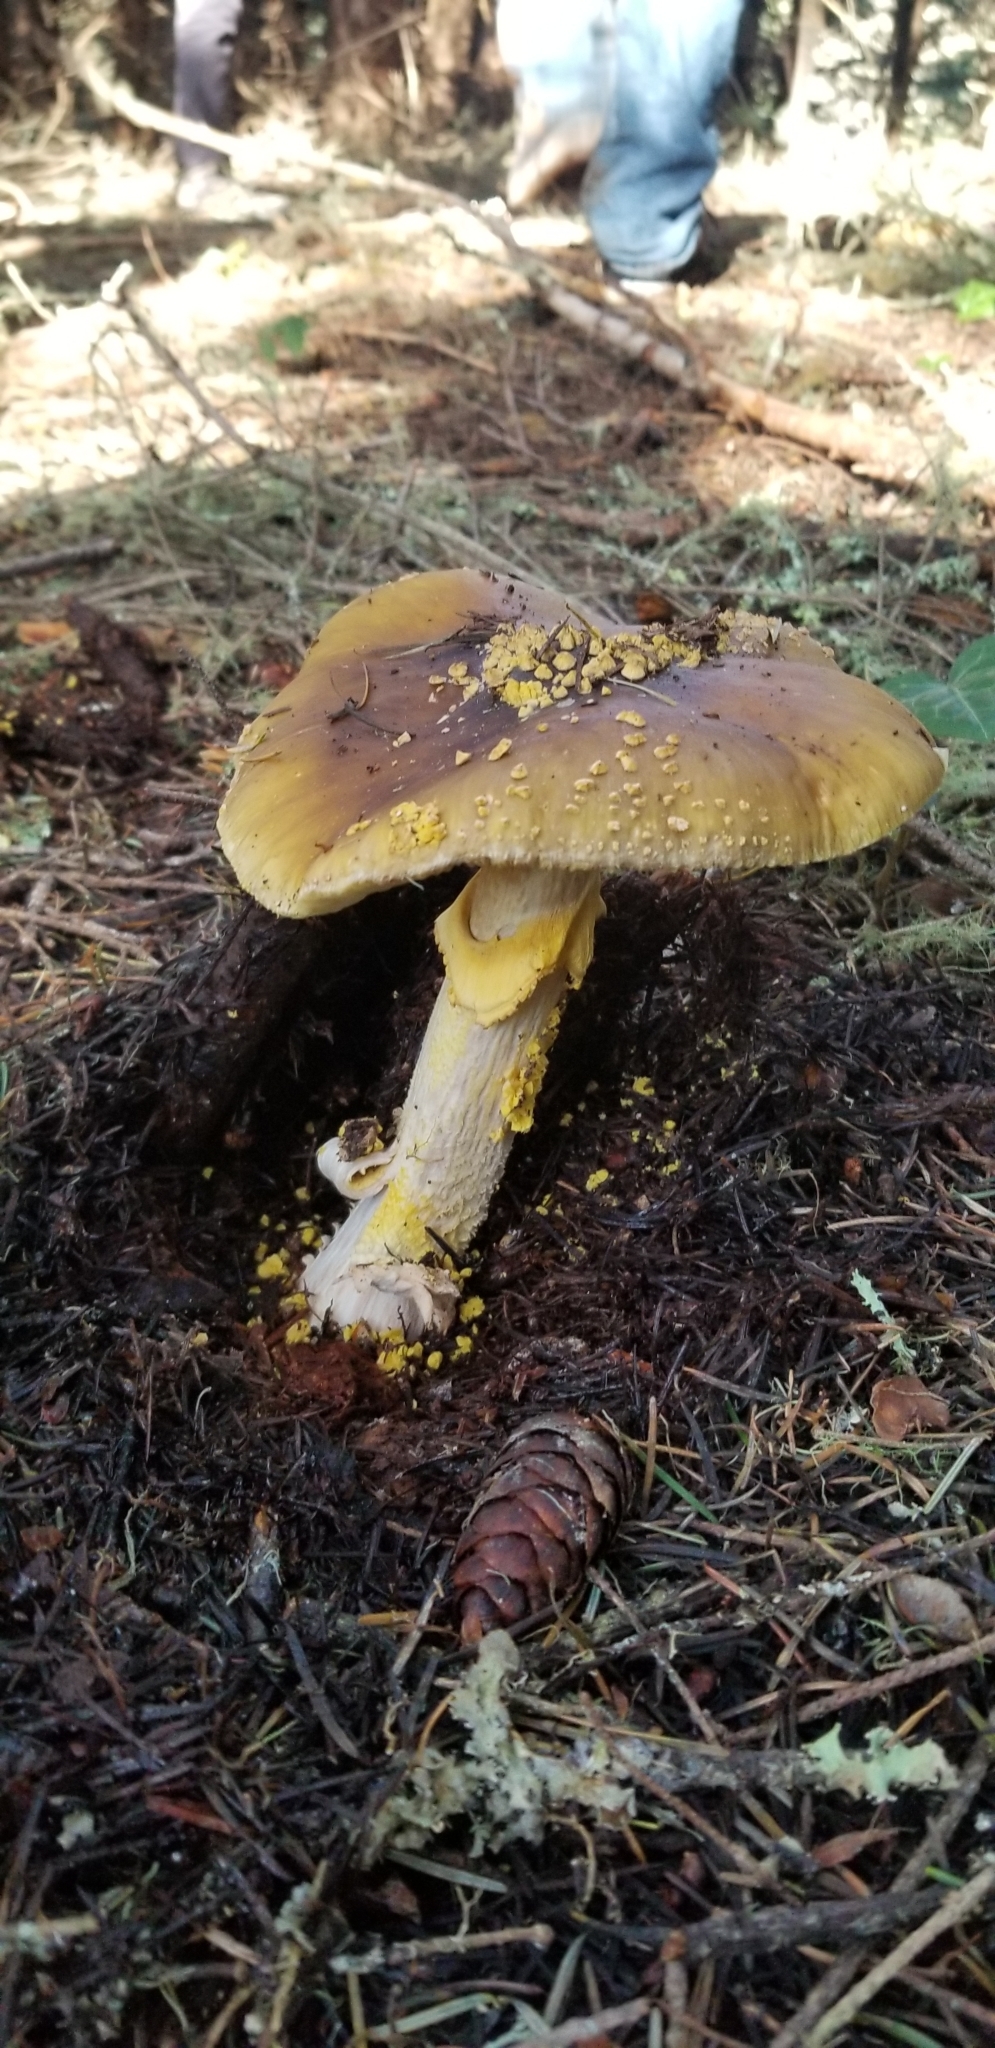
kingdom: Fungi
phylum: Basidiomycota
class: Agaricomycetes
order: Agaricales
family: Amanitaceae
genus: Amanita
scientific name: Amanita augusta
